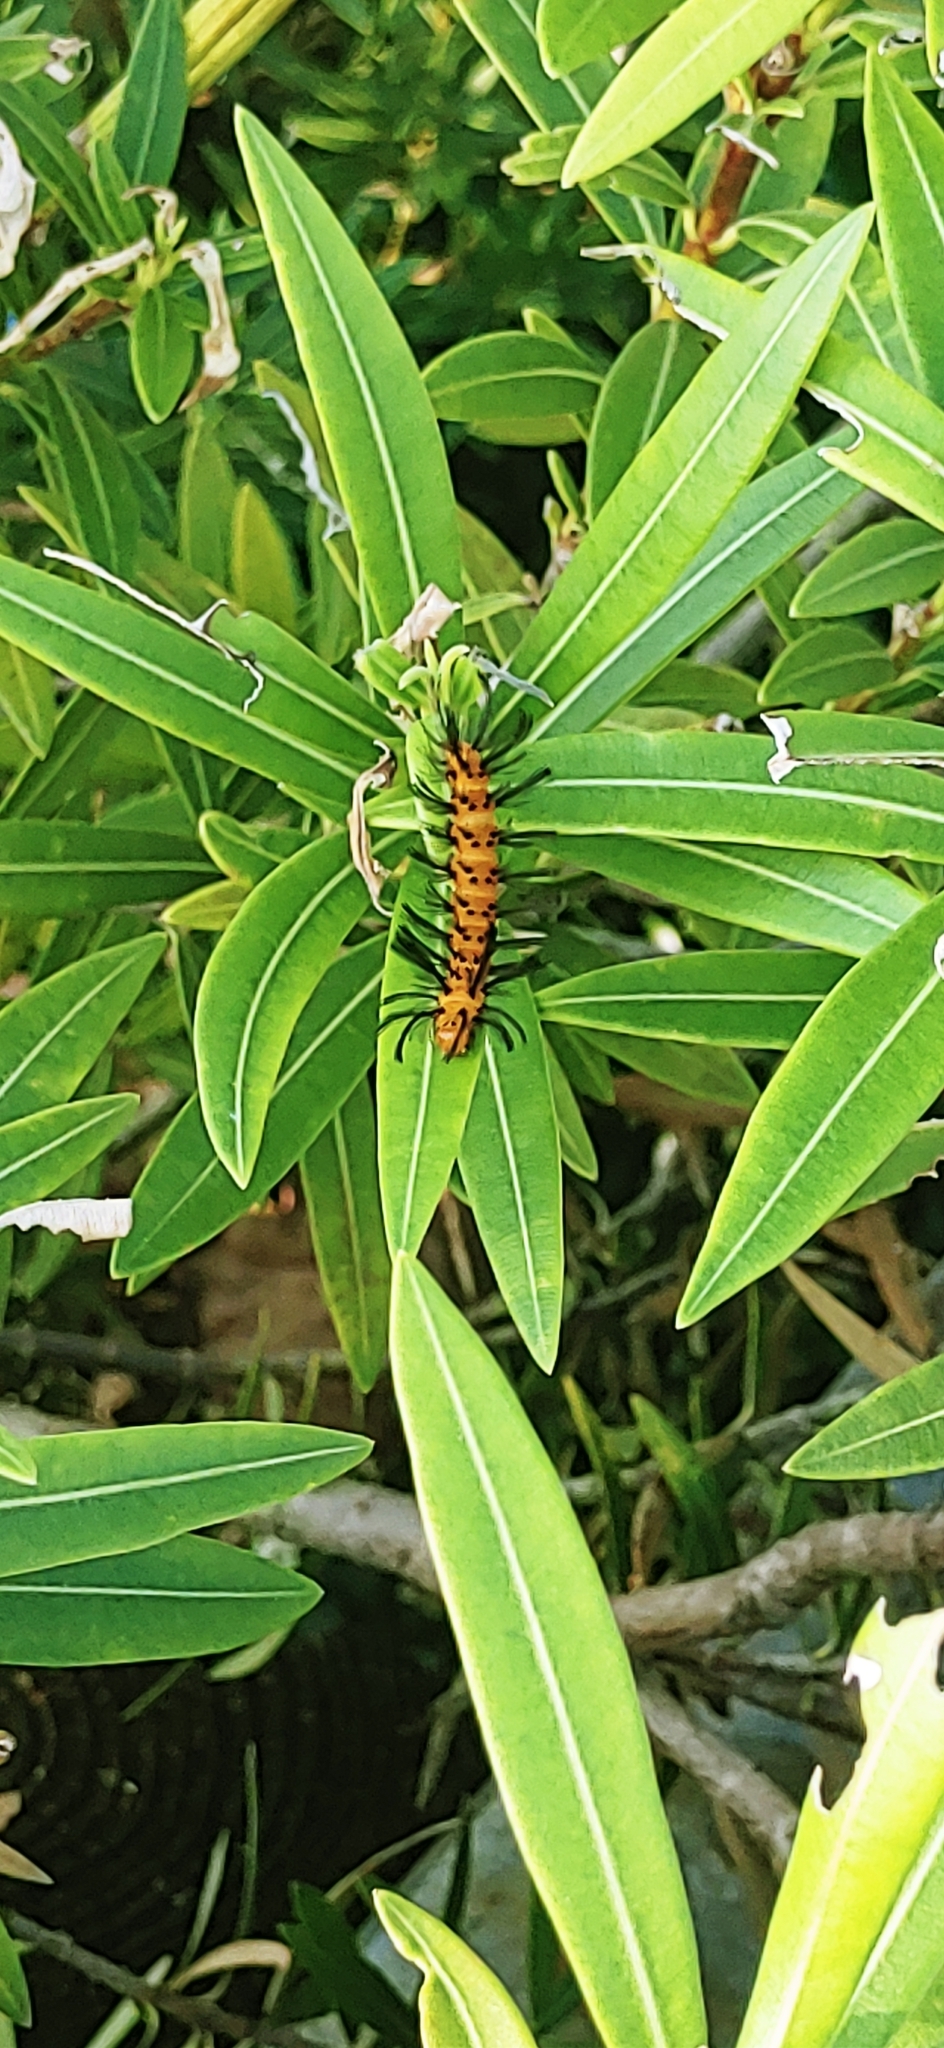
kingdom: Animalia
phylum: Arthropoda
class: Insecta
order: Lepidoptera
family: Erebidae
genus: Syntomeida
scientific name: Syntomeida epilais
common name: Polka-dot wasp moth
